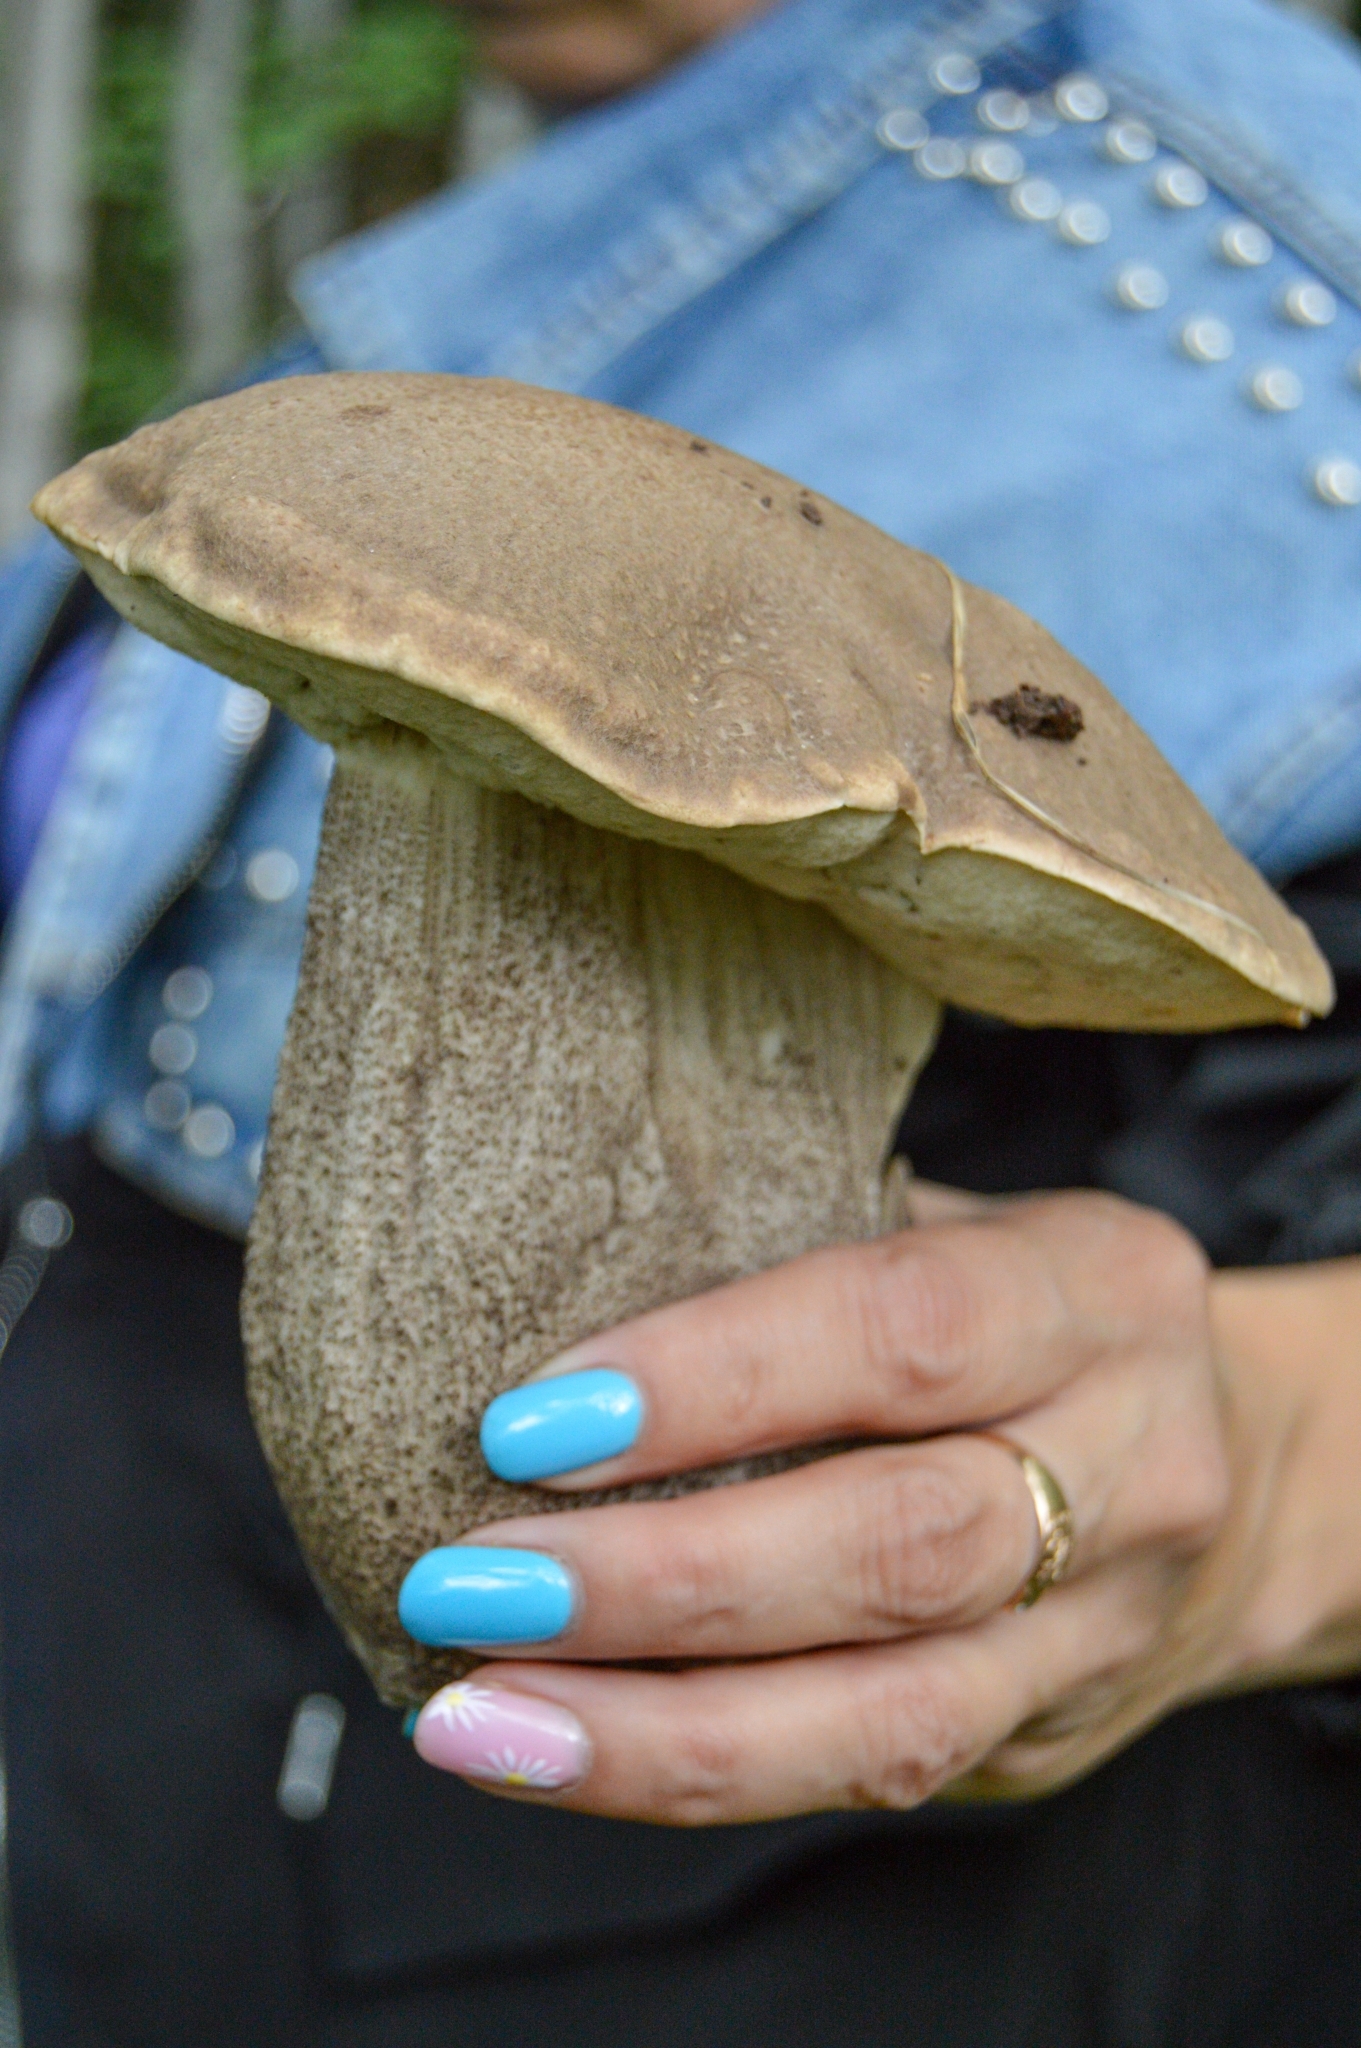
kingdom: Fungi
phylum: Basidiomycota
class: Agaricomycetes
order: Boletales
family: Boletaceae
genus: Leccinum
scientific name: Leccinum scabrum
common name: Blushing bolete
